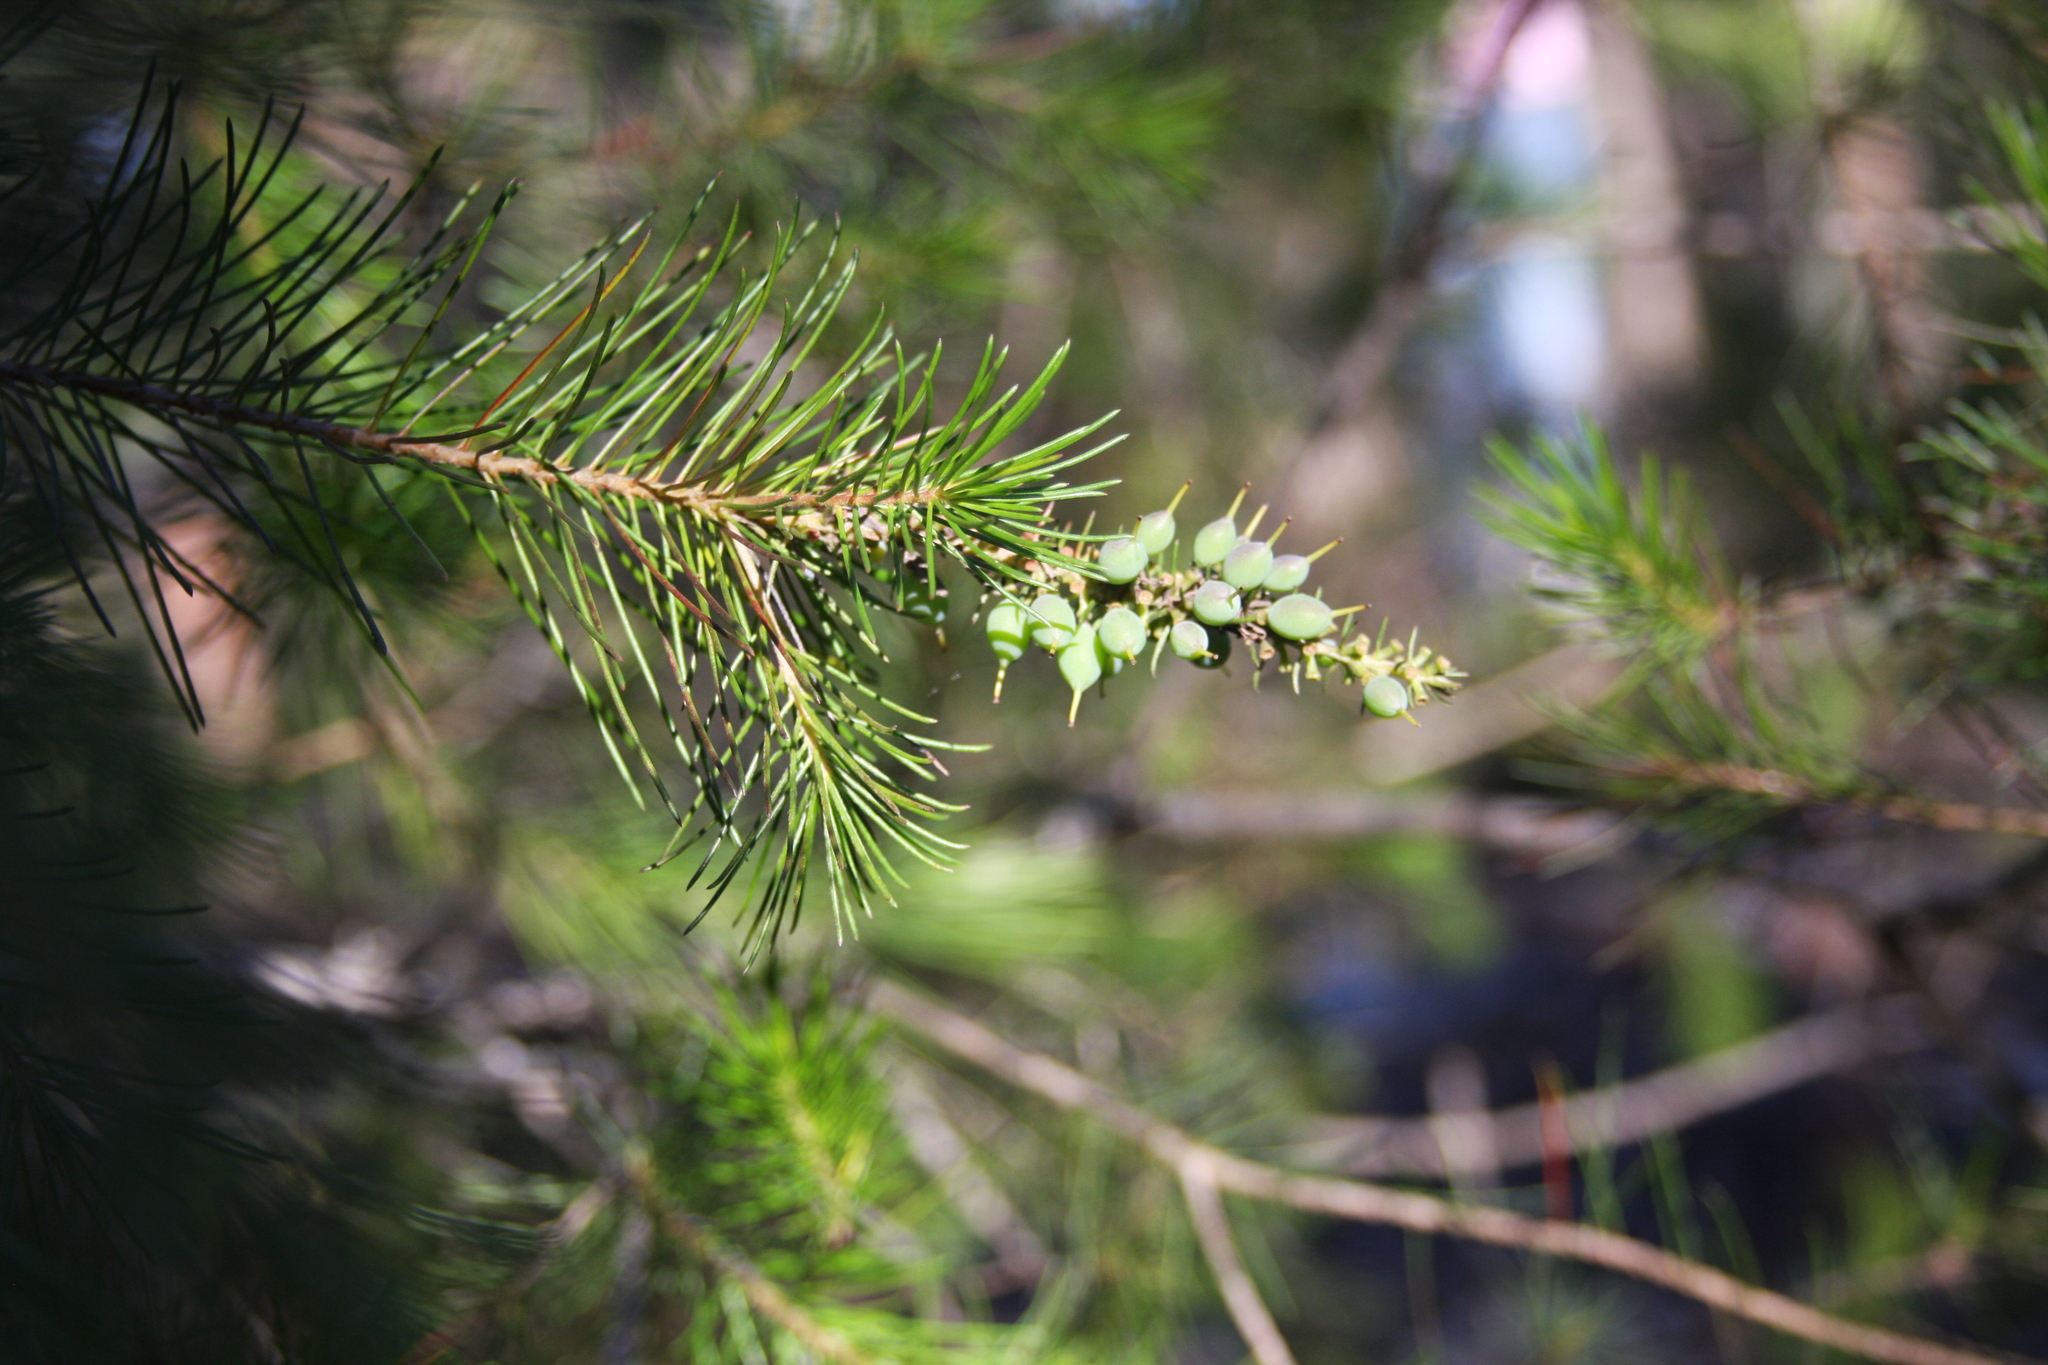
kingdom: Plantae
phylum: Tracheophyta
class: Magnoliopsida
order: Proteales
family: Proteaceae
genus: Persoonia
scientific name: Persoonia pinifolia
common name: Pine-leaf geebung
